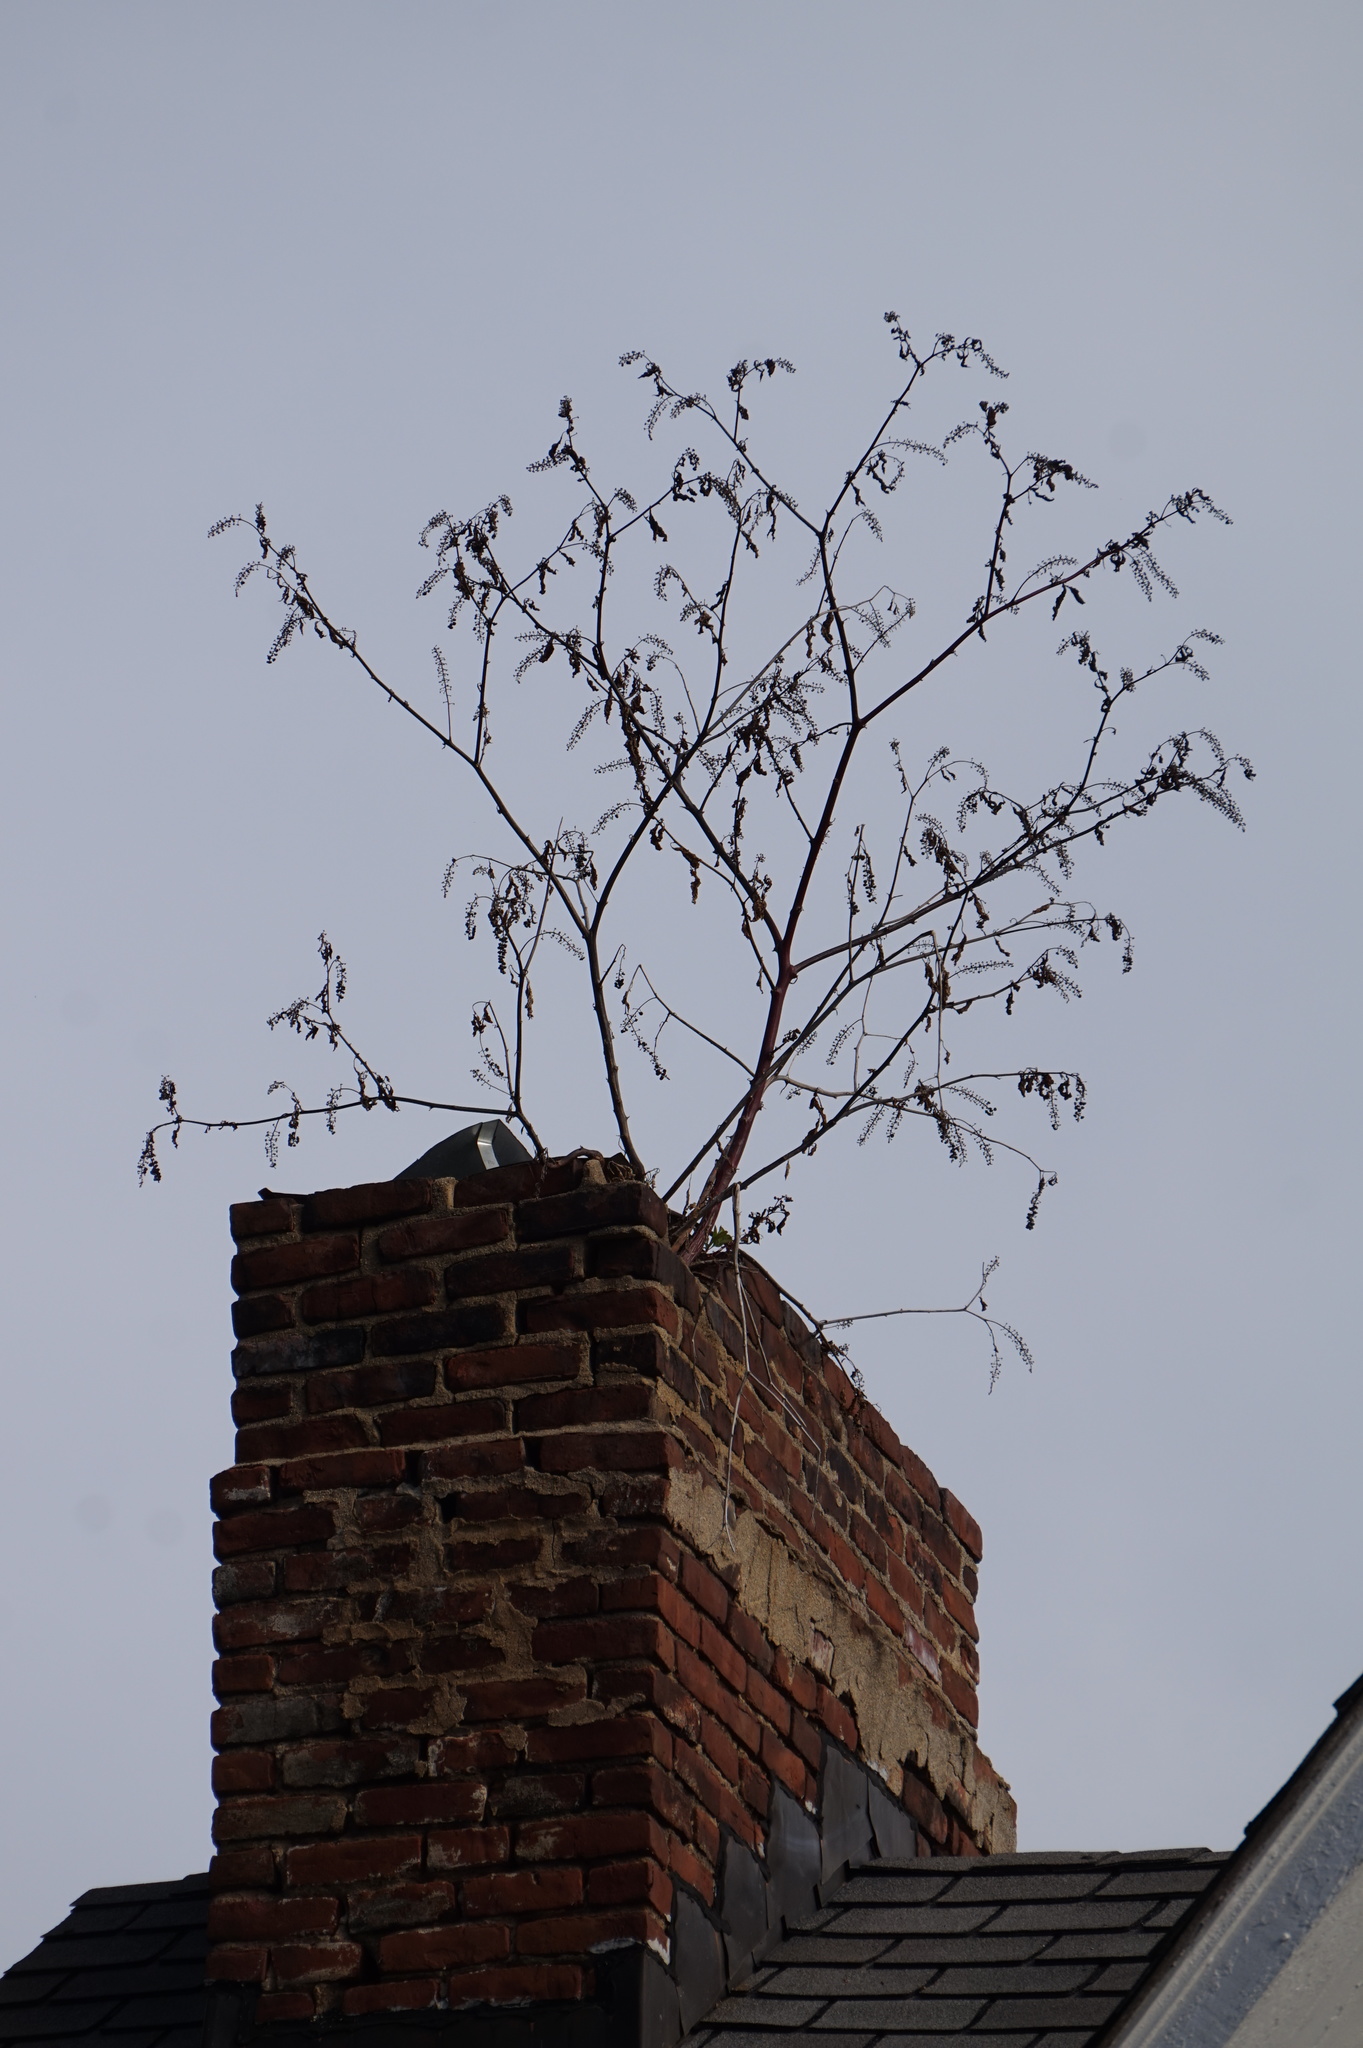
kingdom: Plantae
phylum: Tracheophyta
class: Magnoliopsida
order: Caryophyllales
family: Phytolaccaceae
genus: Phytolacca
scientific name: Phytolacca americana
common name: American pokeweed
